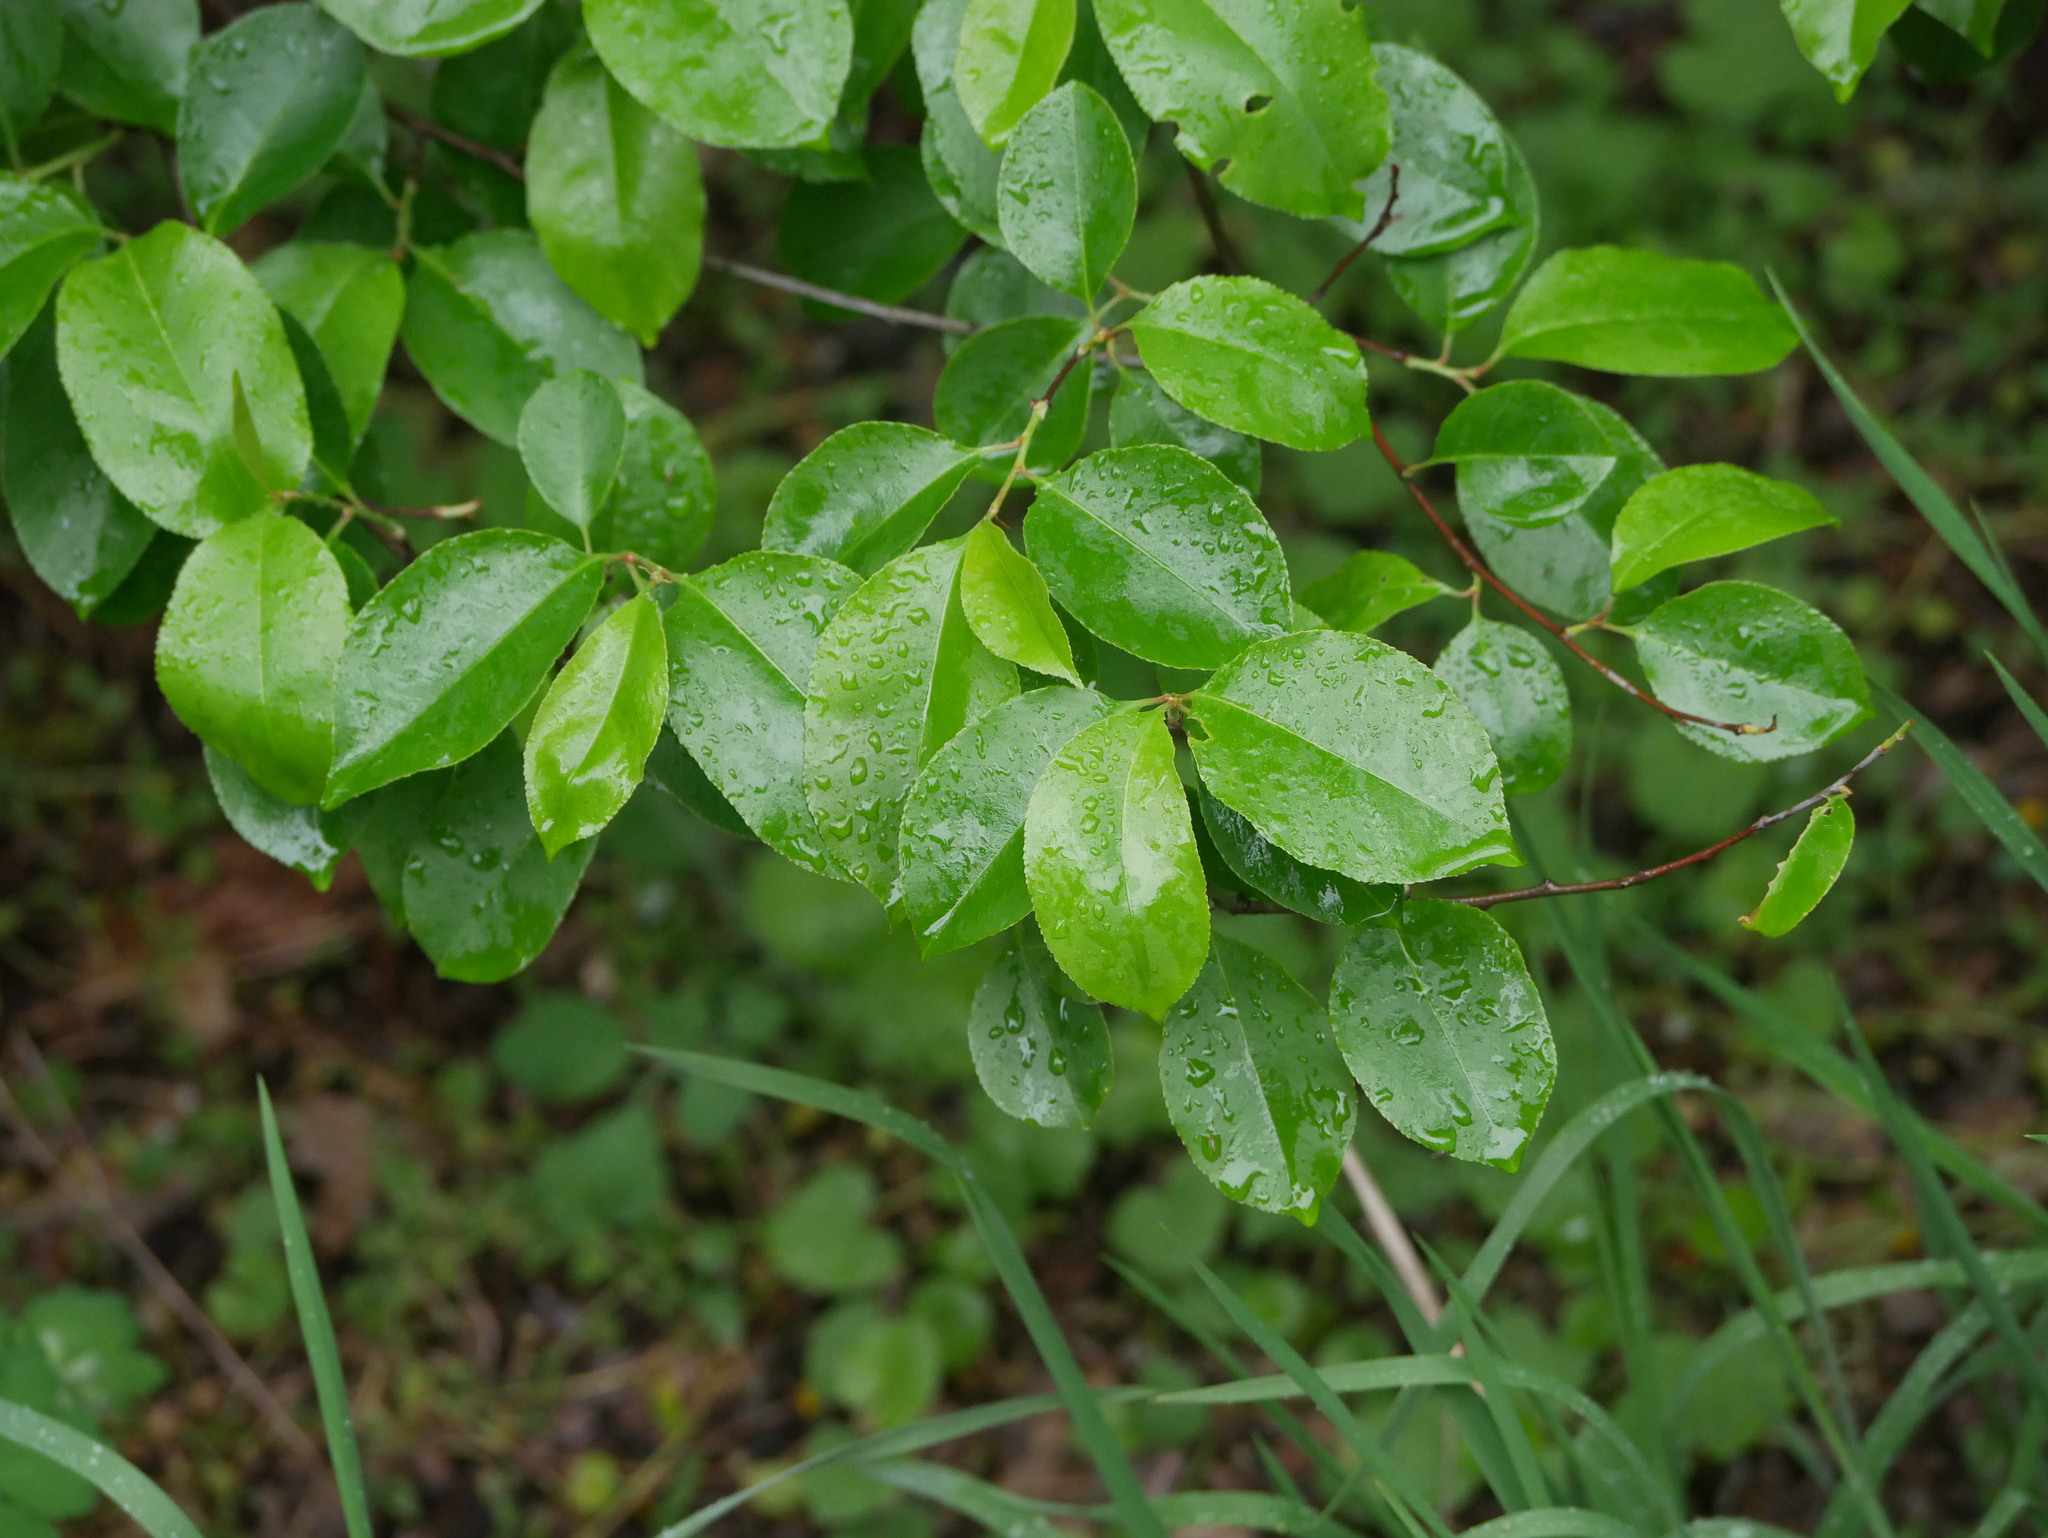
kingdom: Plantae
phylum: Tracheophyta
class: Magnoliopsida
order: Rosales
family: Rosaceae
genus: Prunus
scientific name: Prunus serotina
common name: Black cherry
